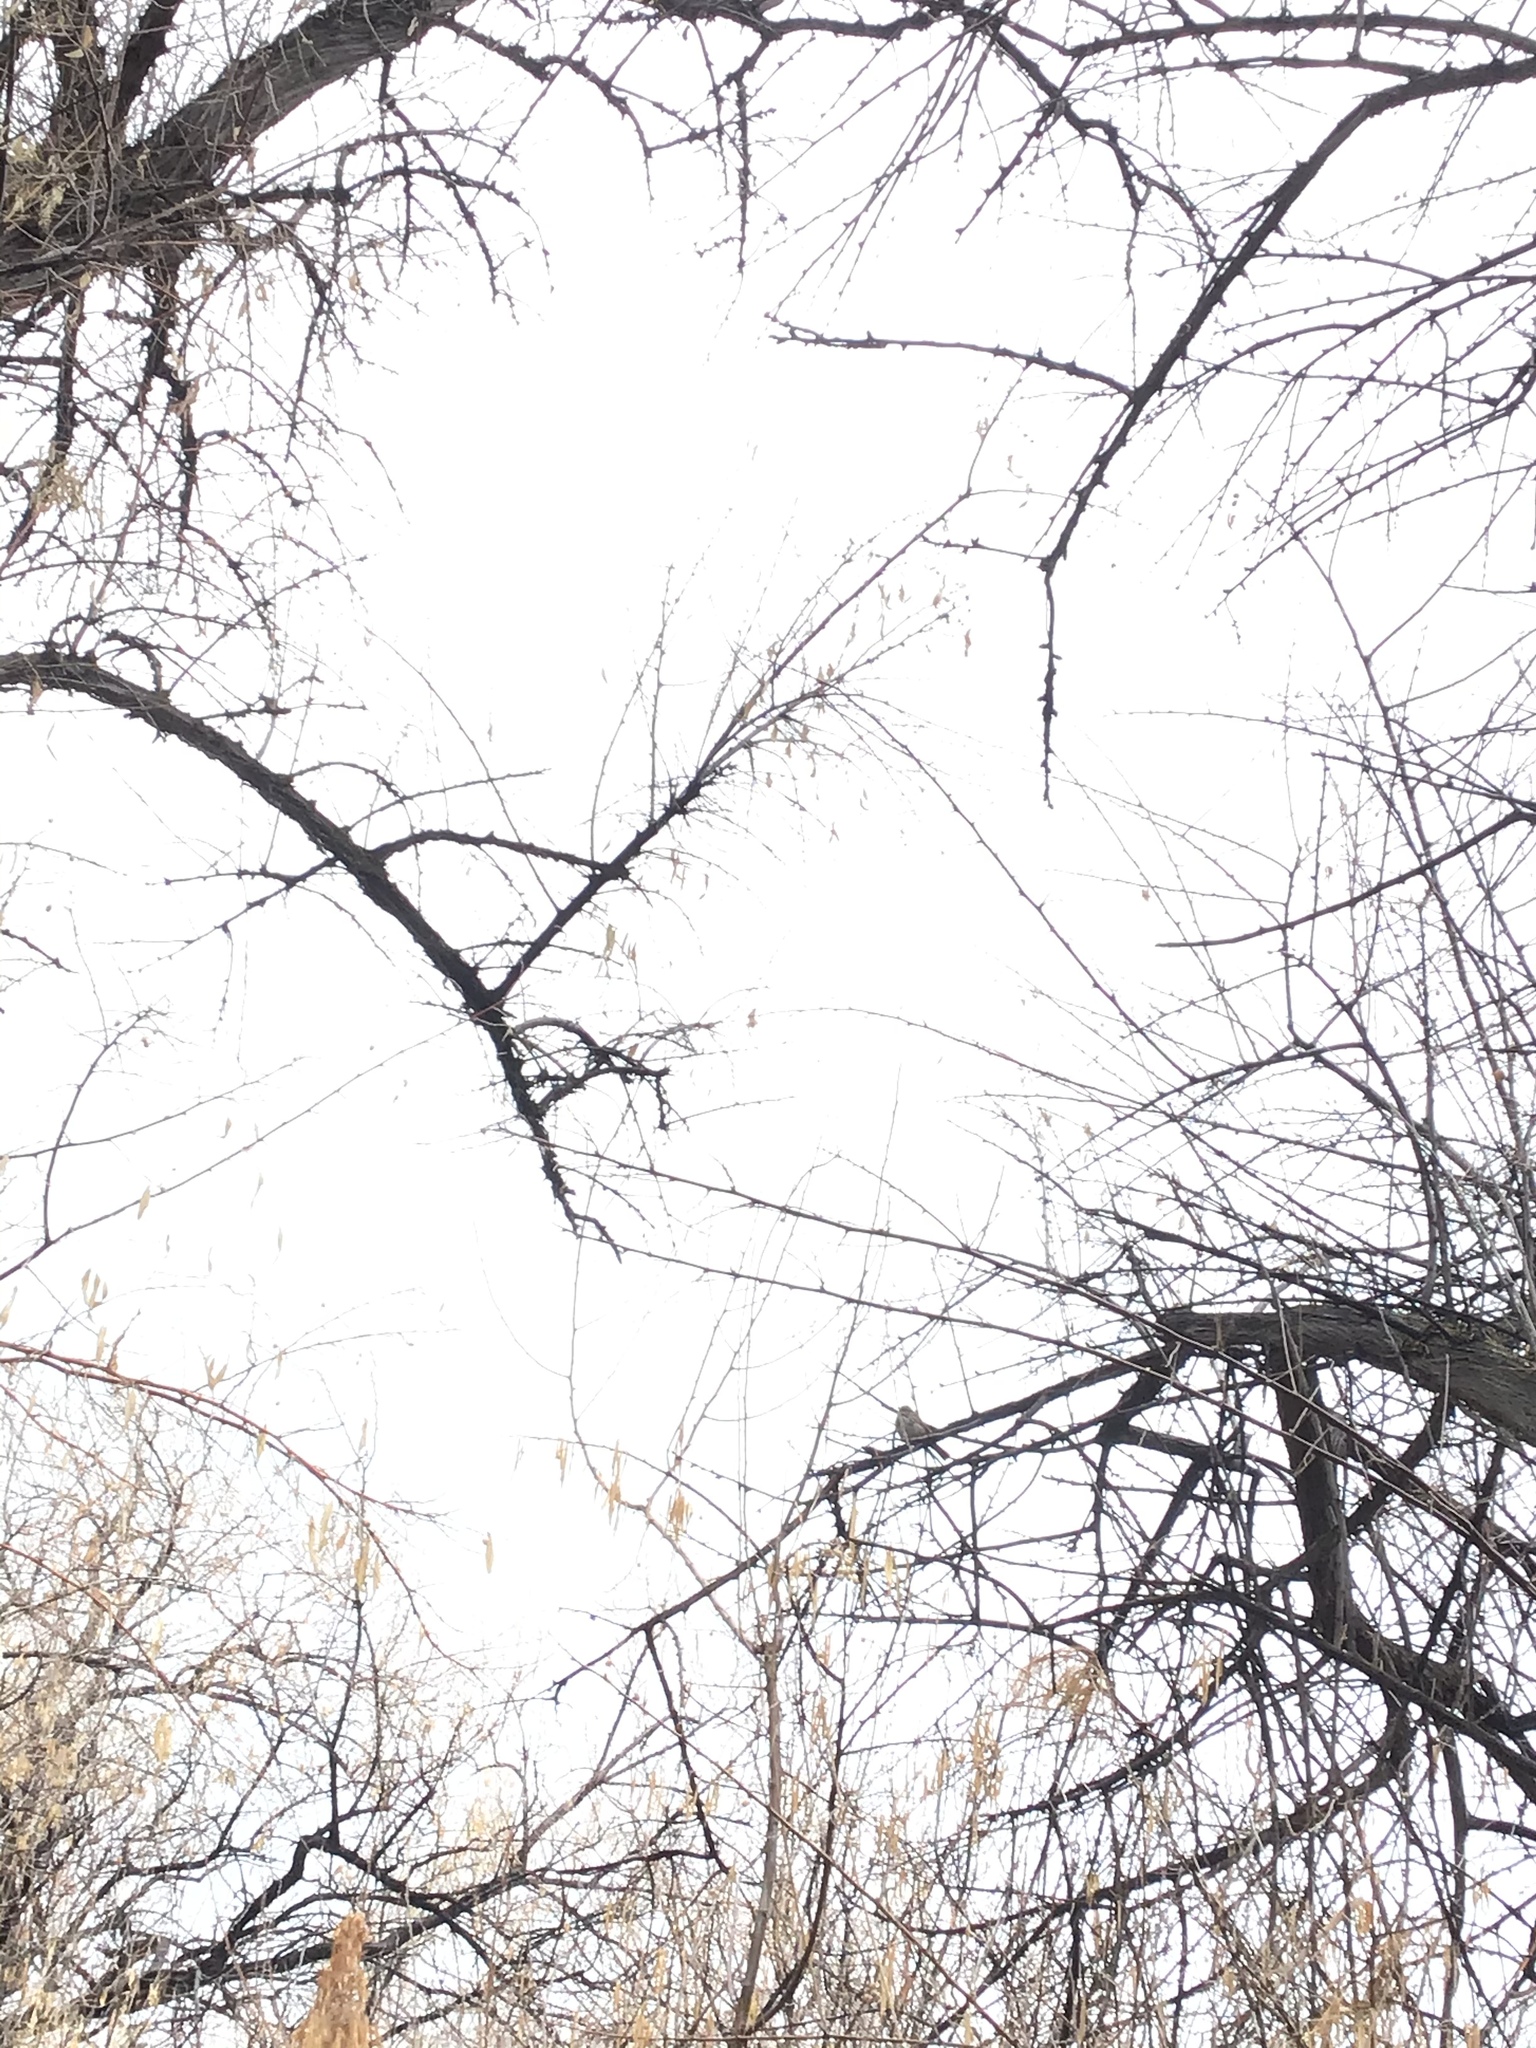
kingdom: Animalia
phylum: Chordata
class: Aves
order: Passeriformes
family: Passerellidae
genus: Melospiza
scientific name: Melospiza melodia
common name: Song sparrow
